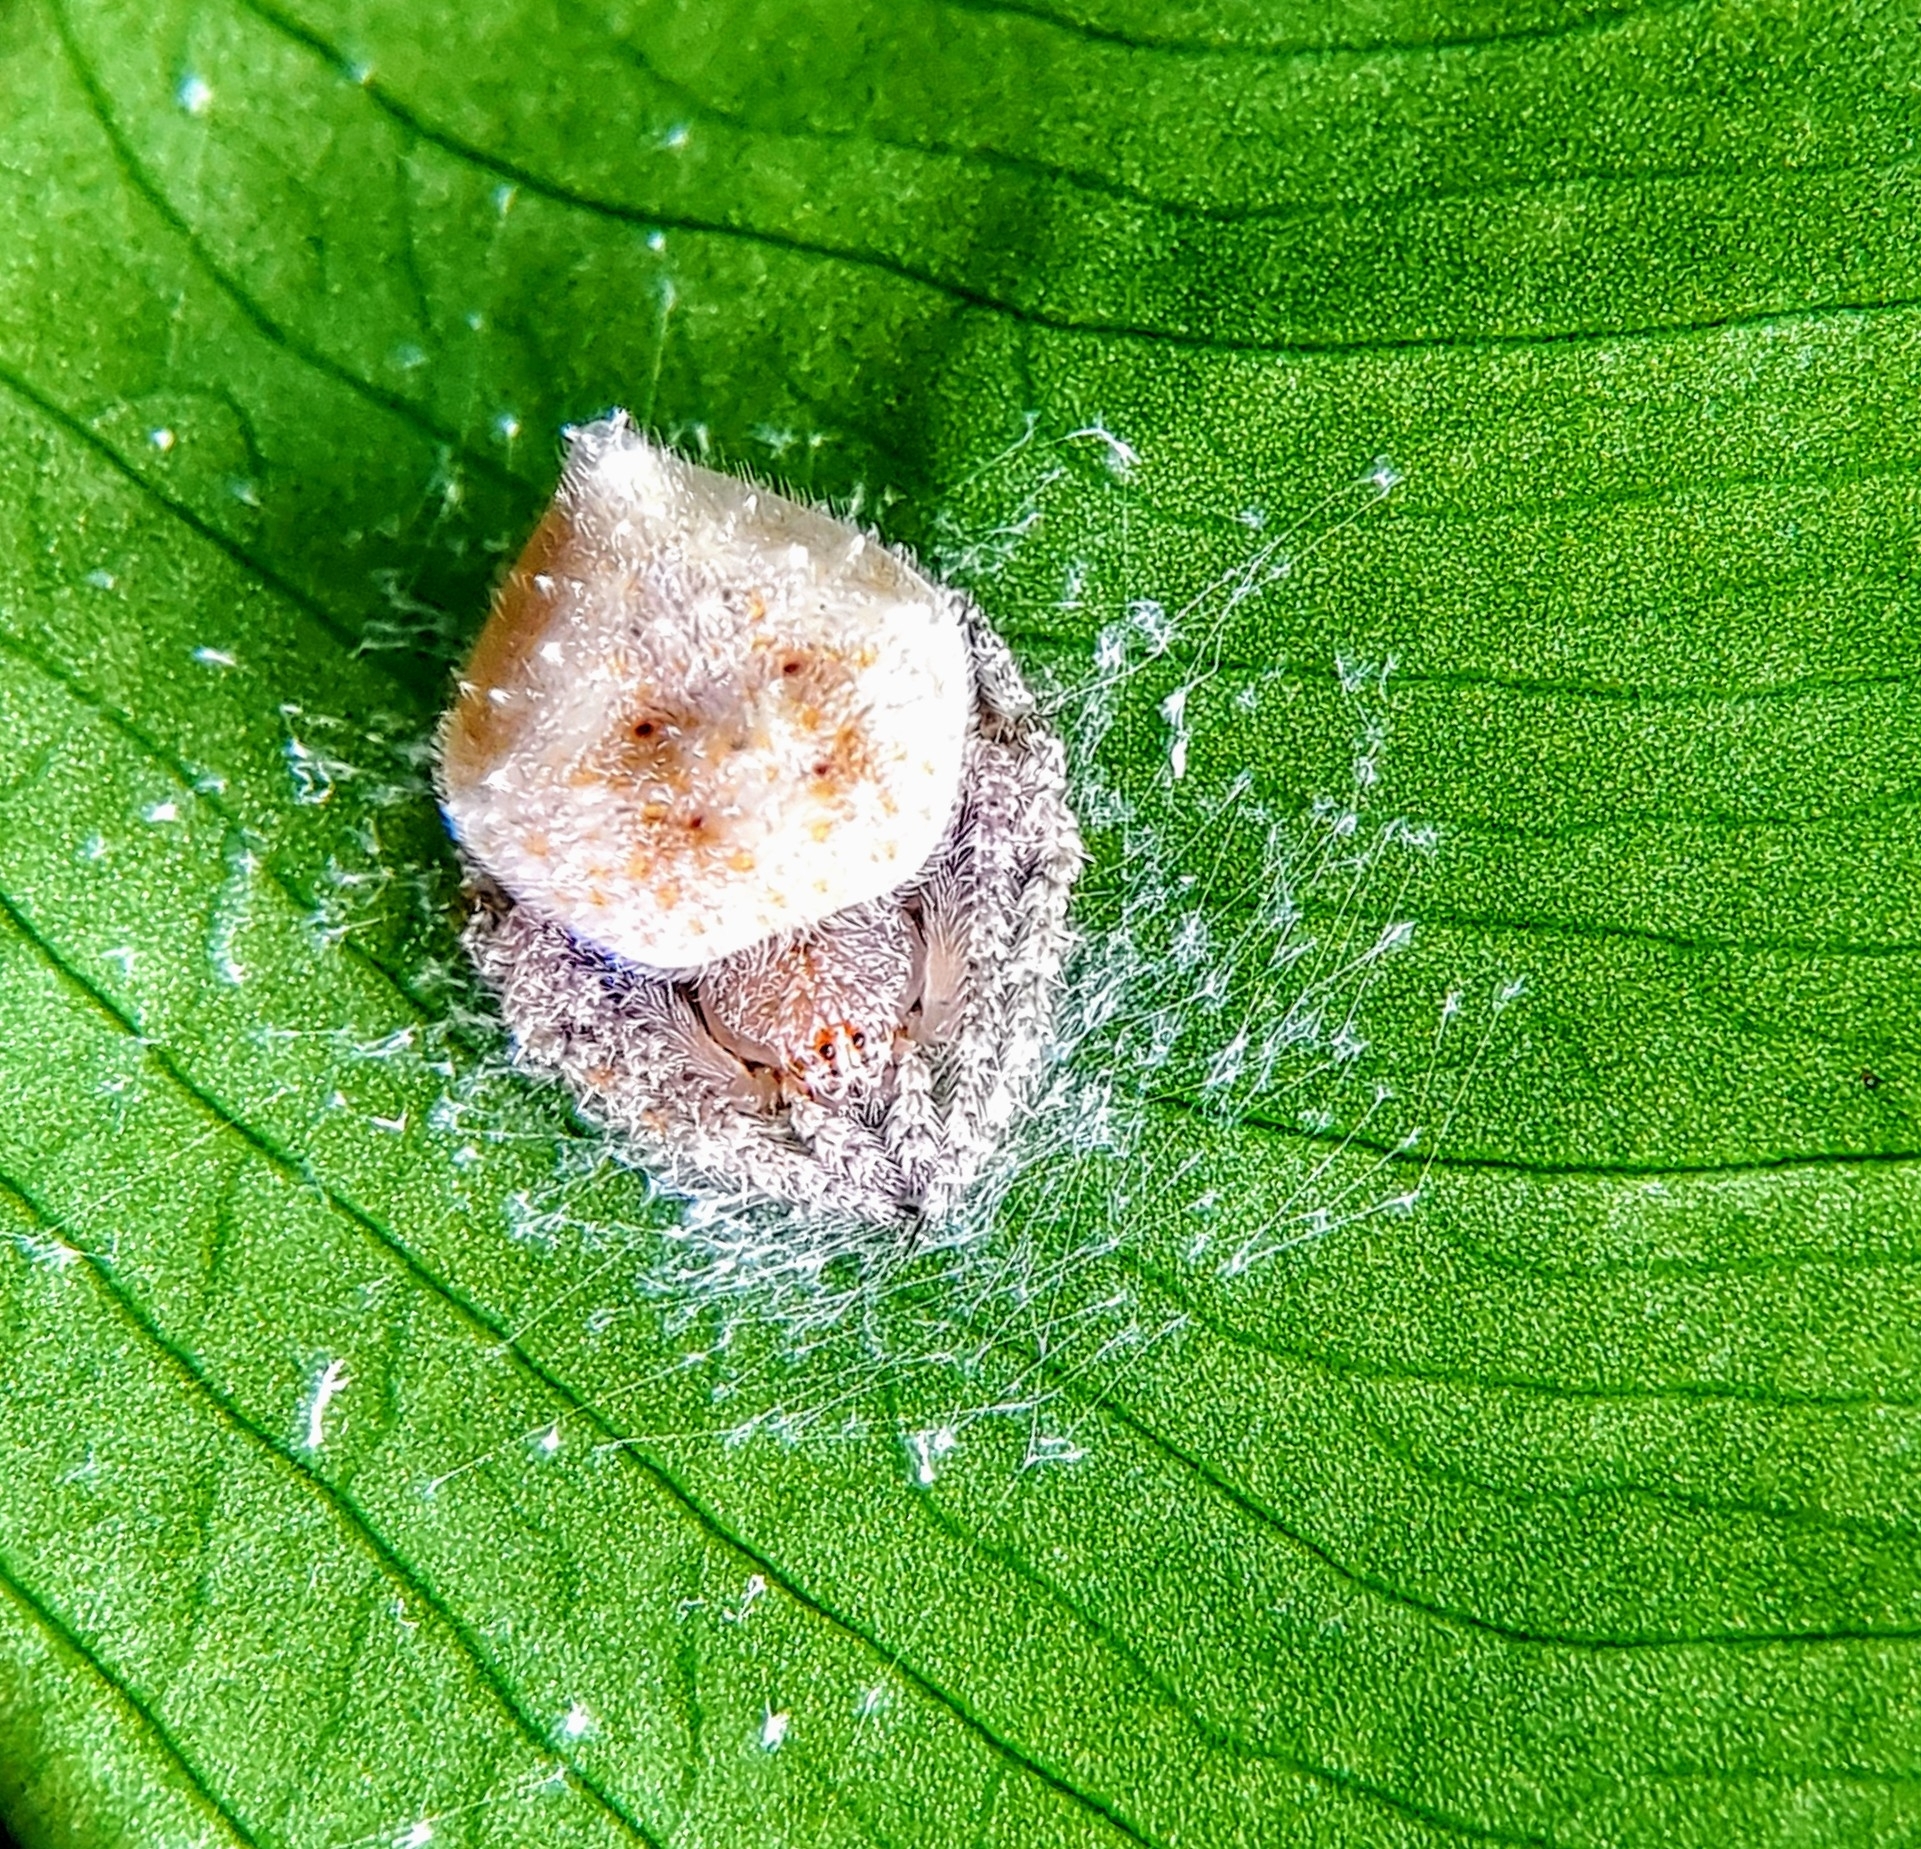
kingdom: Animalia
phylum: Arthropoda
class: Arachnida
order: Araneae
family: Araneidae
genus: Eriovixia
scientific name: Eriovixia laglaizei
